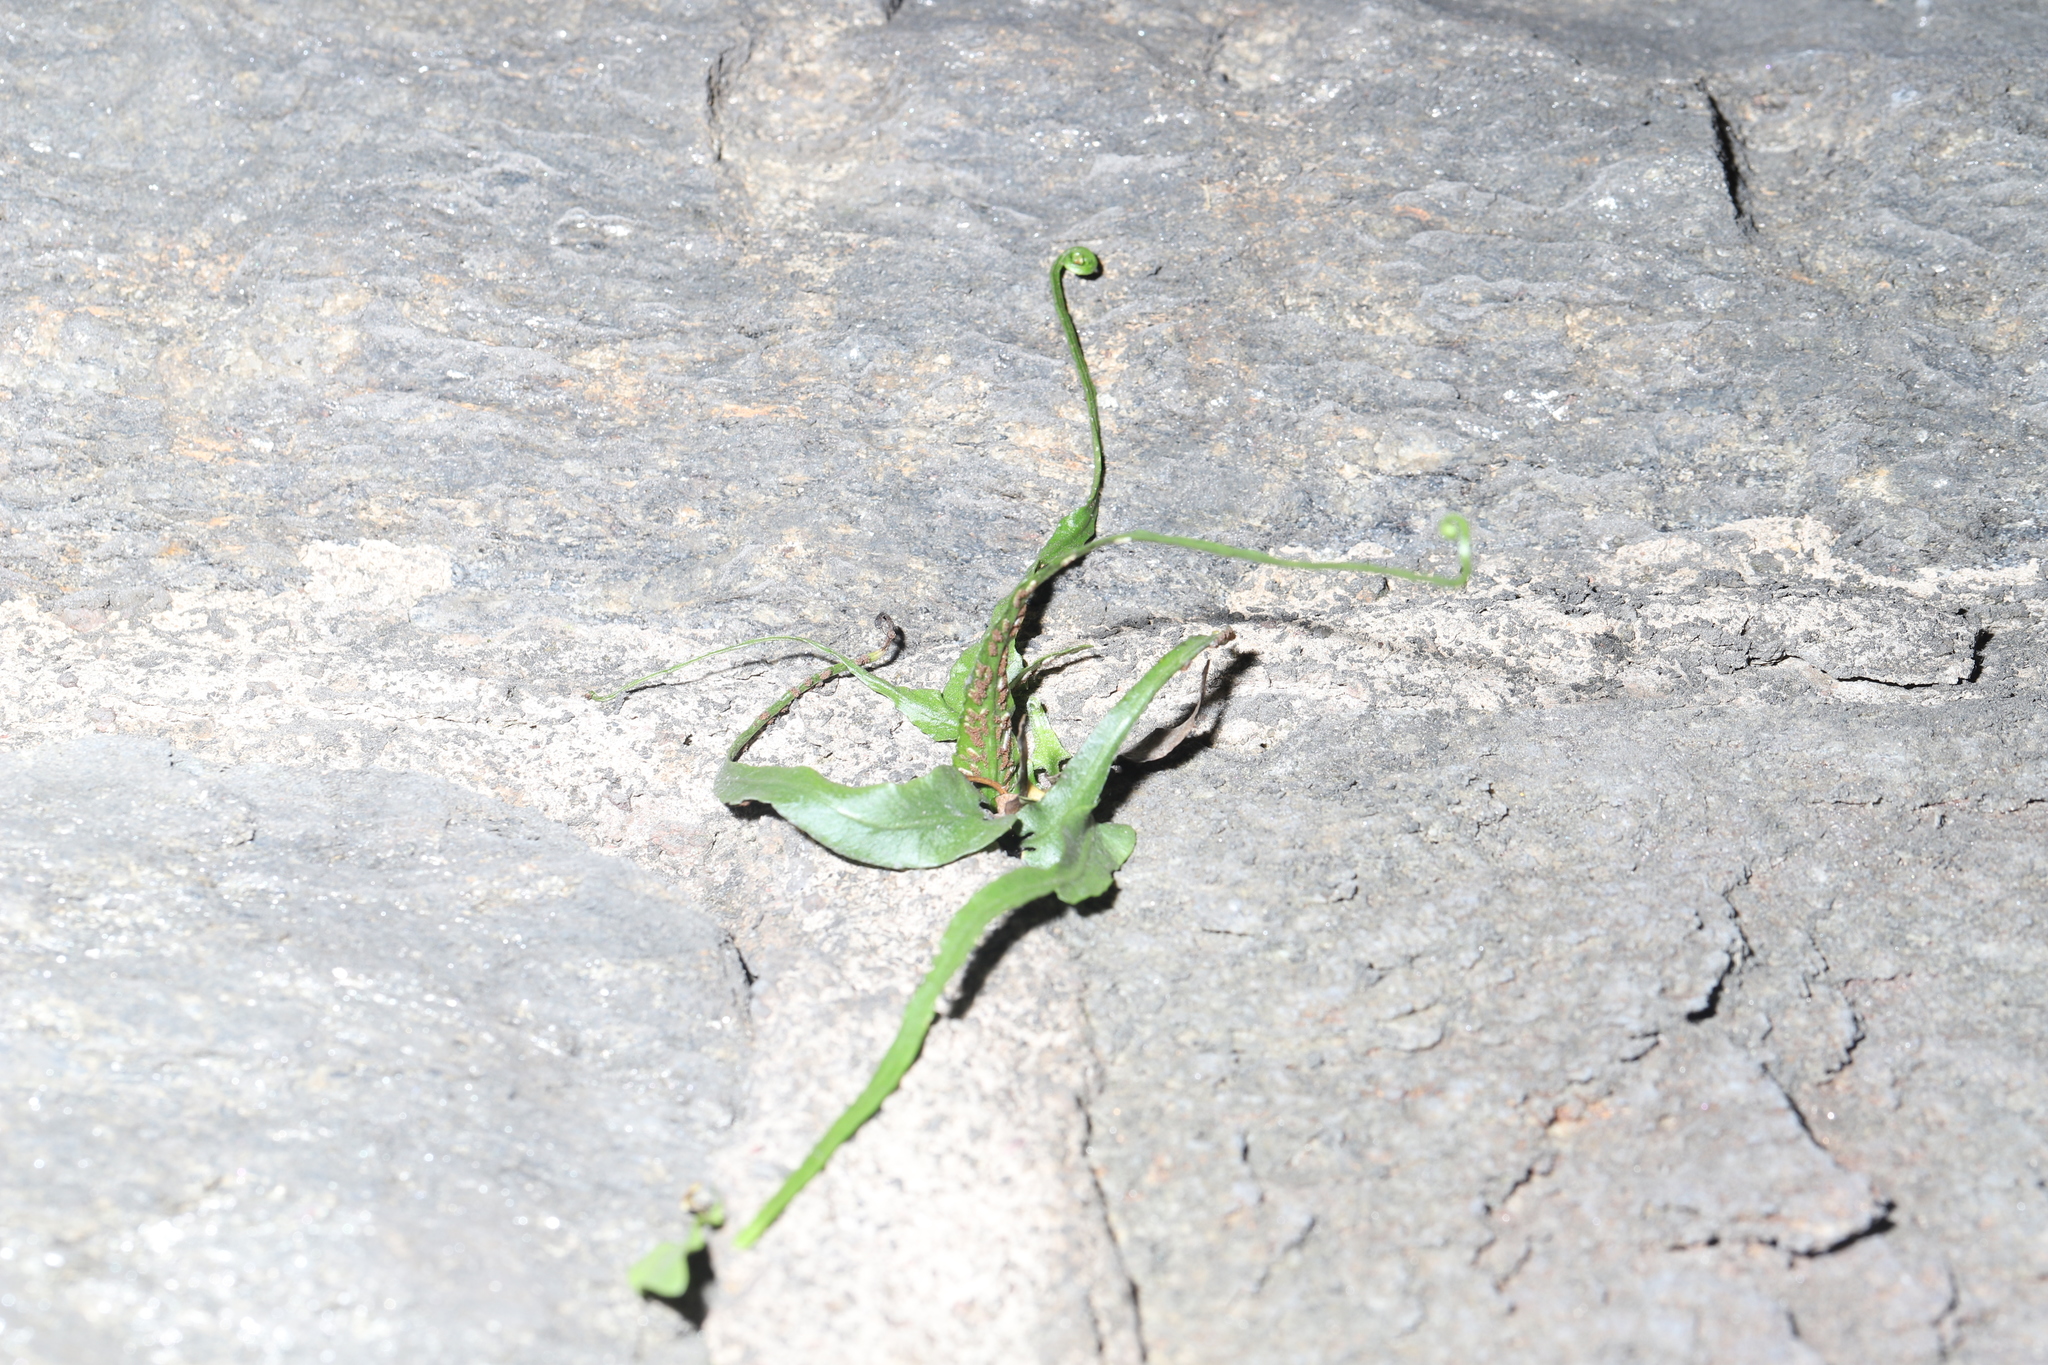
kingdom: Plantae
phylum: Tracheophyta
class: Polypodiopsida
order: Polypodiales
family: Aspleniaceae
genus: Asplenium
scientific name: Asplenium rhizophyllum
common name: Walking fern
